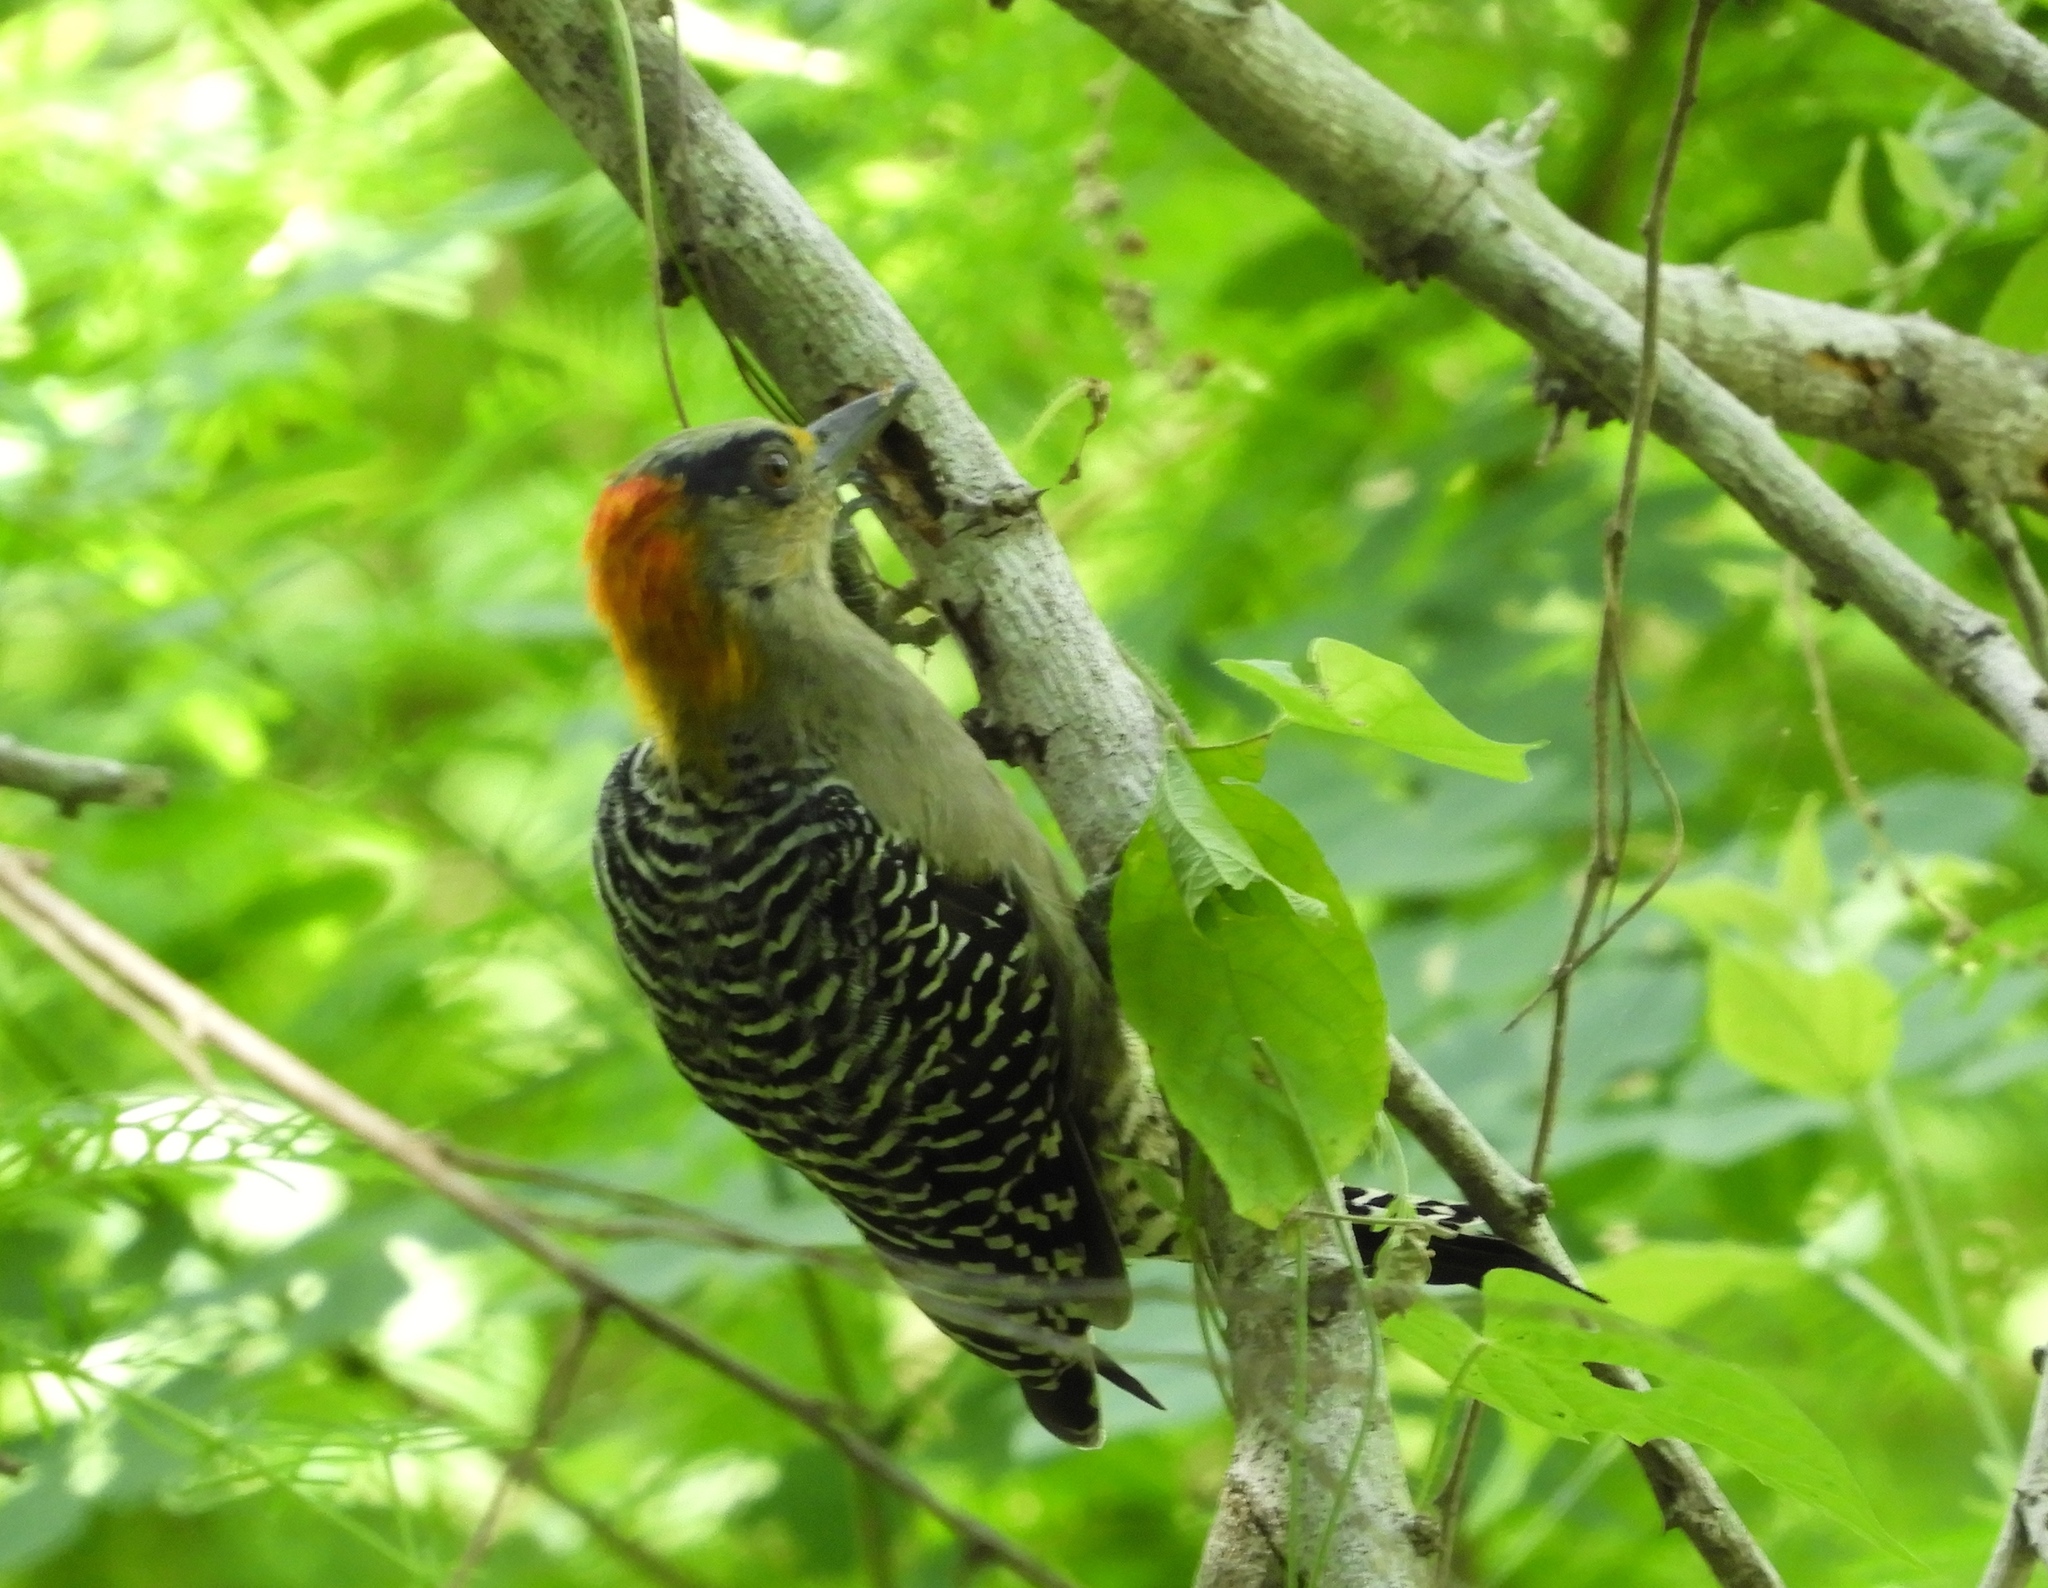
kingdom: Animalia
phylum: Chordata
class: Aves
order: Piciformes
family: Picidae
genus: Melanerpes
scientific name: Melanerpes chrysogenys
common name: Golden-cheeked woodpecker
